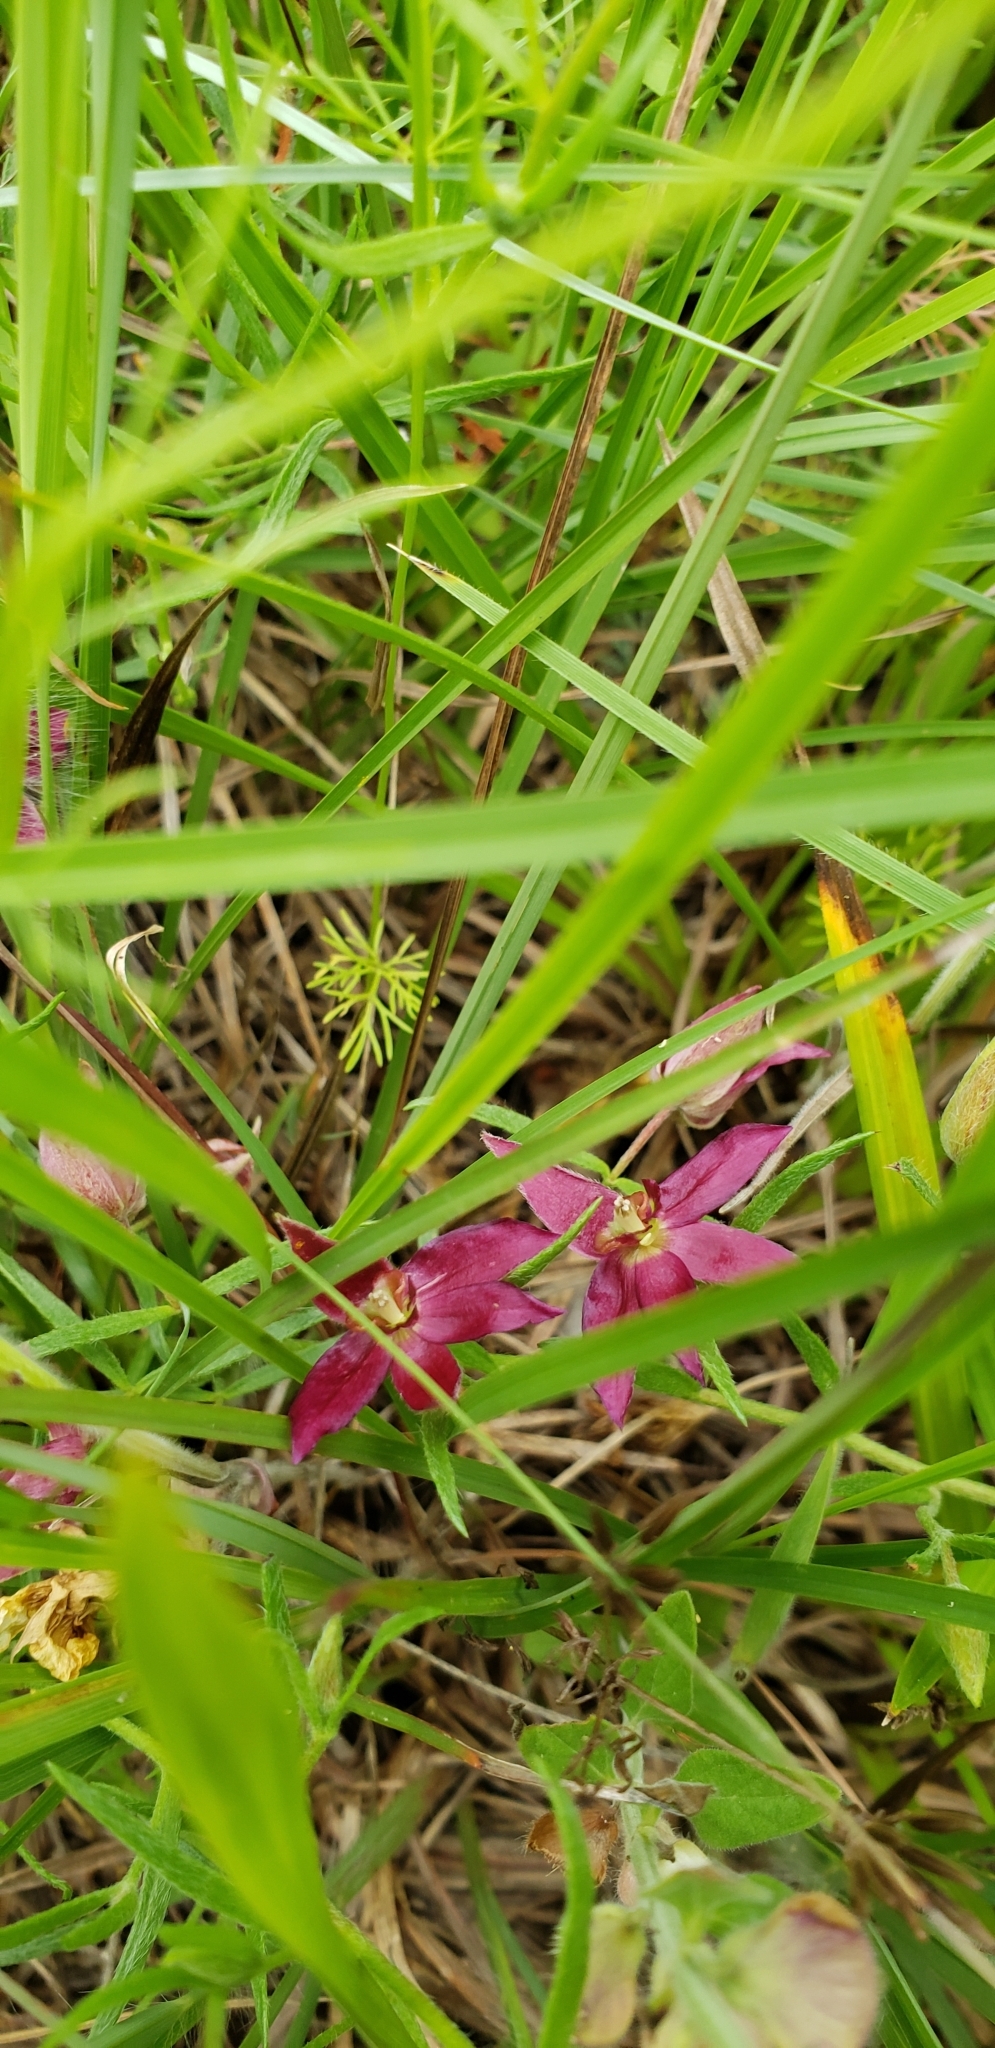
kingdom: Plantae
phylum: Tracheophyta
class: Magnoliopsida
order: Zygophyllales
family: Krameriaceae
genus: Krameria
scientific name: Krameria lanceolata
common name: Ratany
